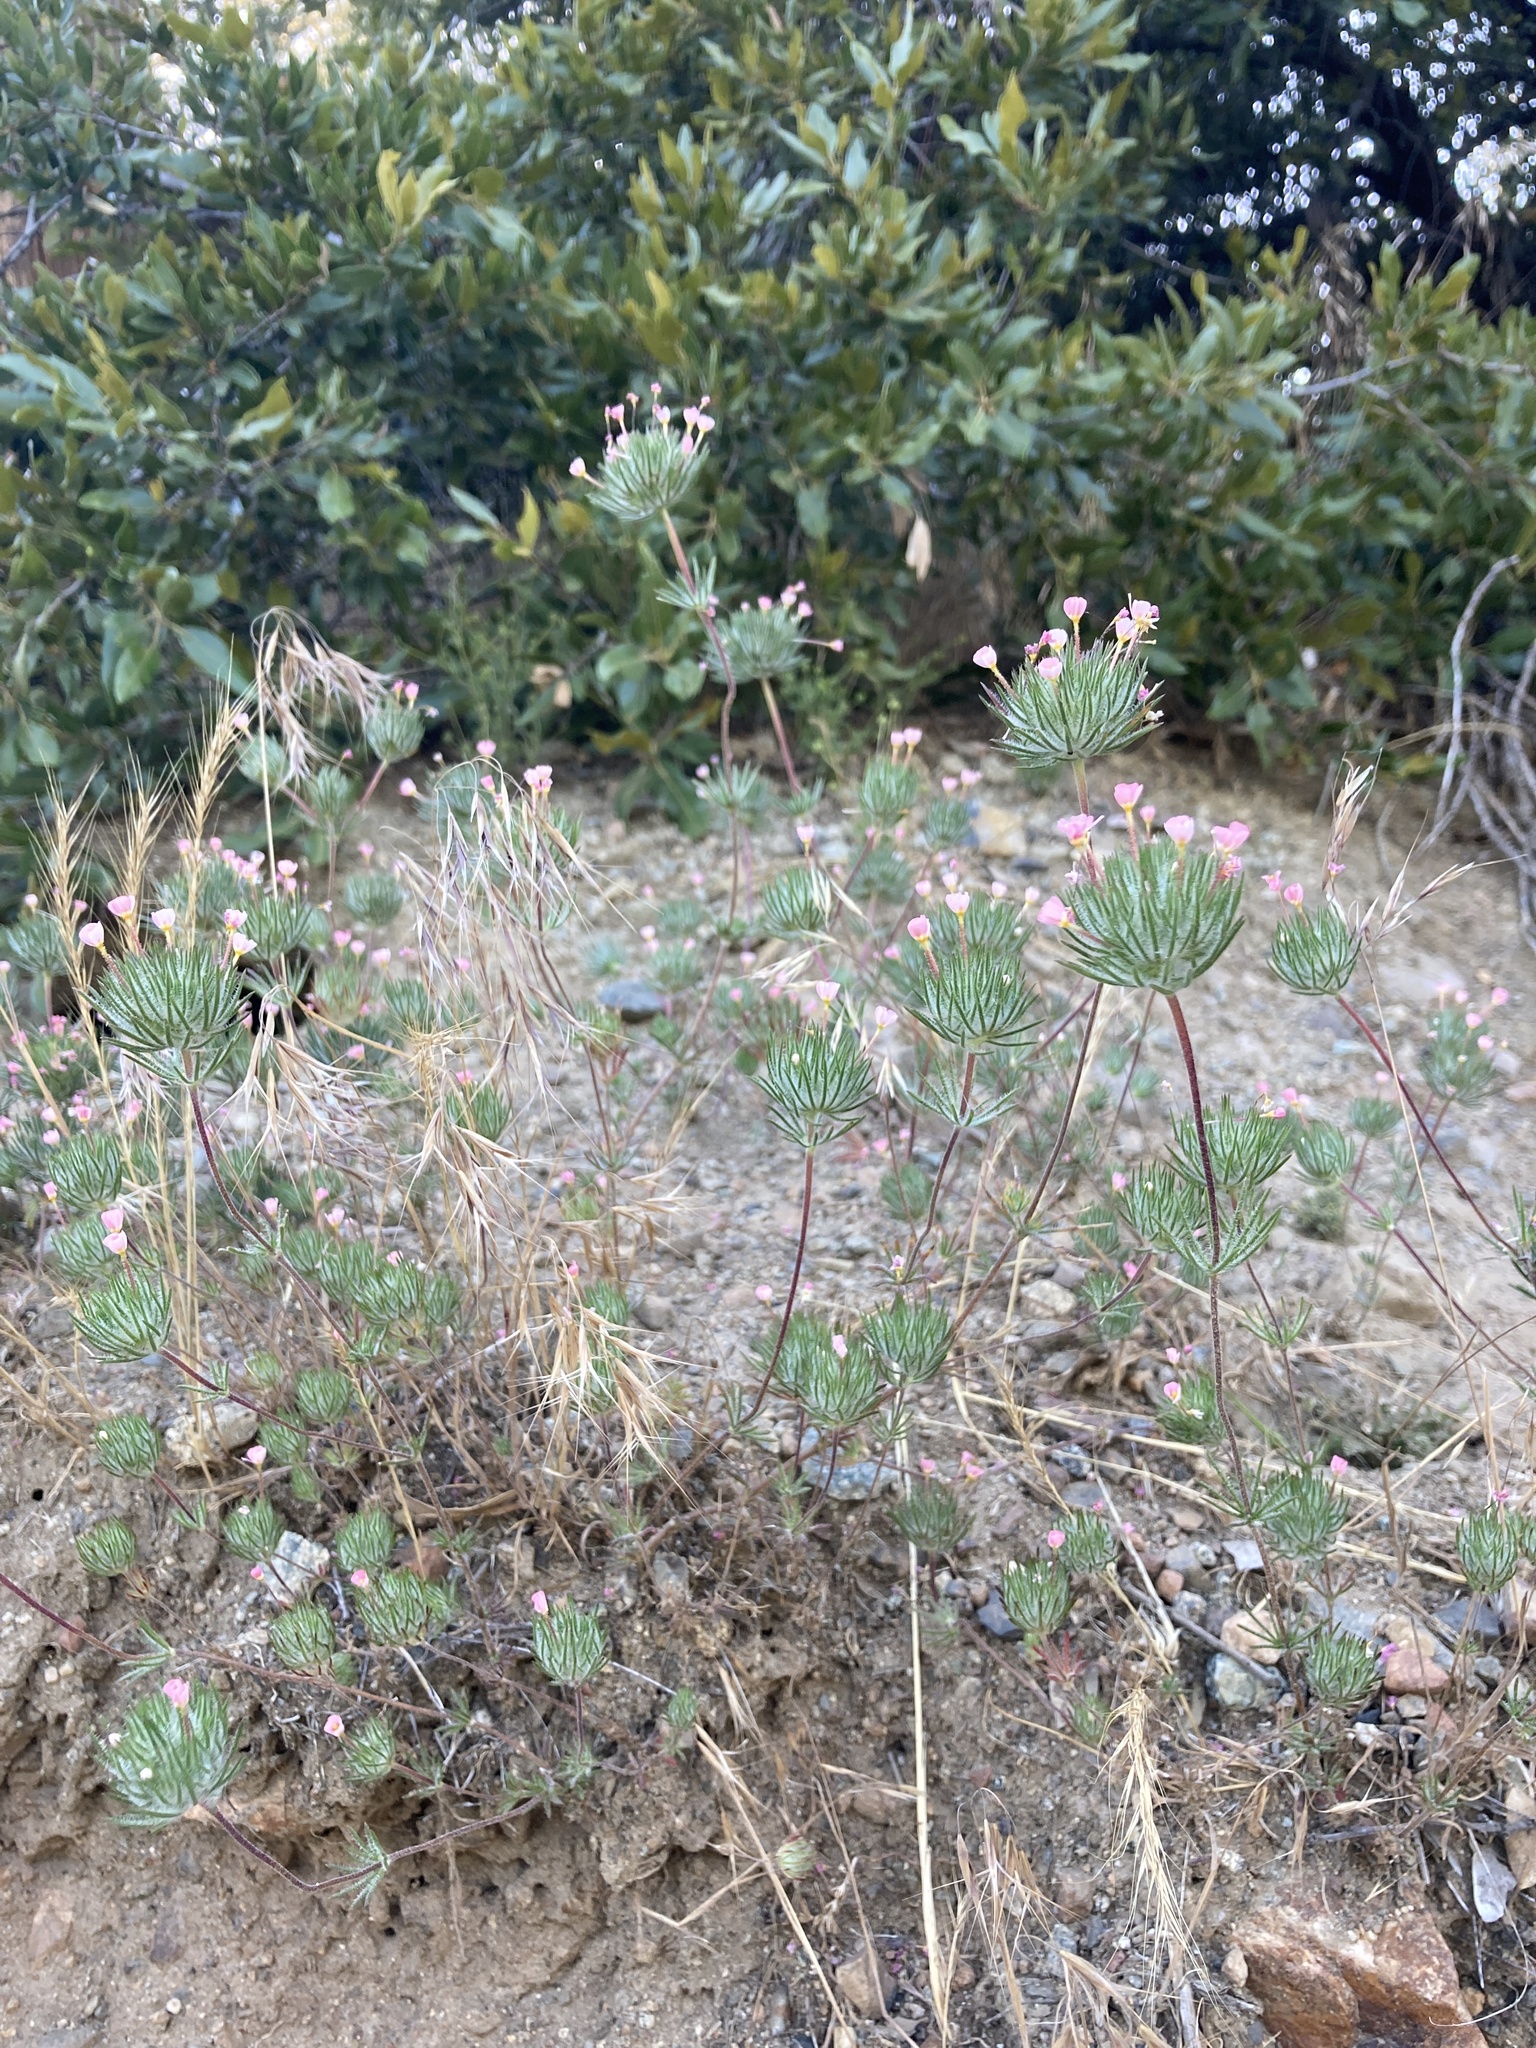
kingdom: Plantae
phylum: Tracheophyta
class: Magnoliopsida
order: Ericales
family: Polemoniaceae
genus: Leptosiphon
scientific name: Leptosiphon ciliatus
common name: Whiskerbrush
